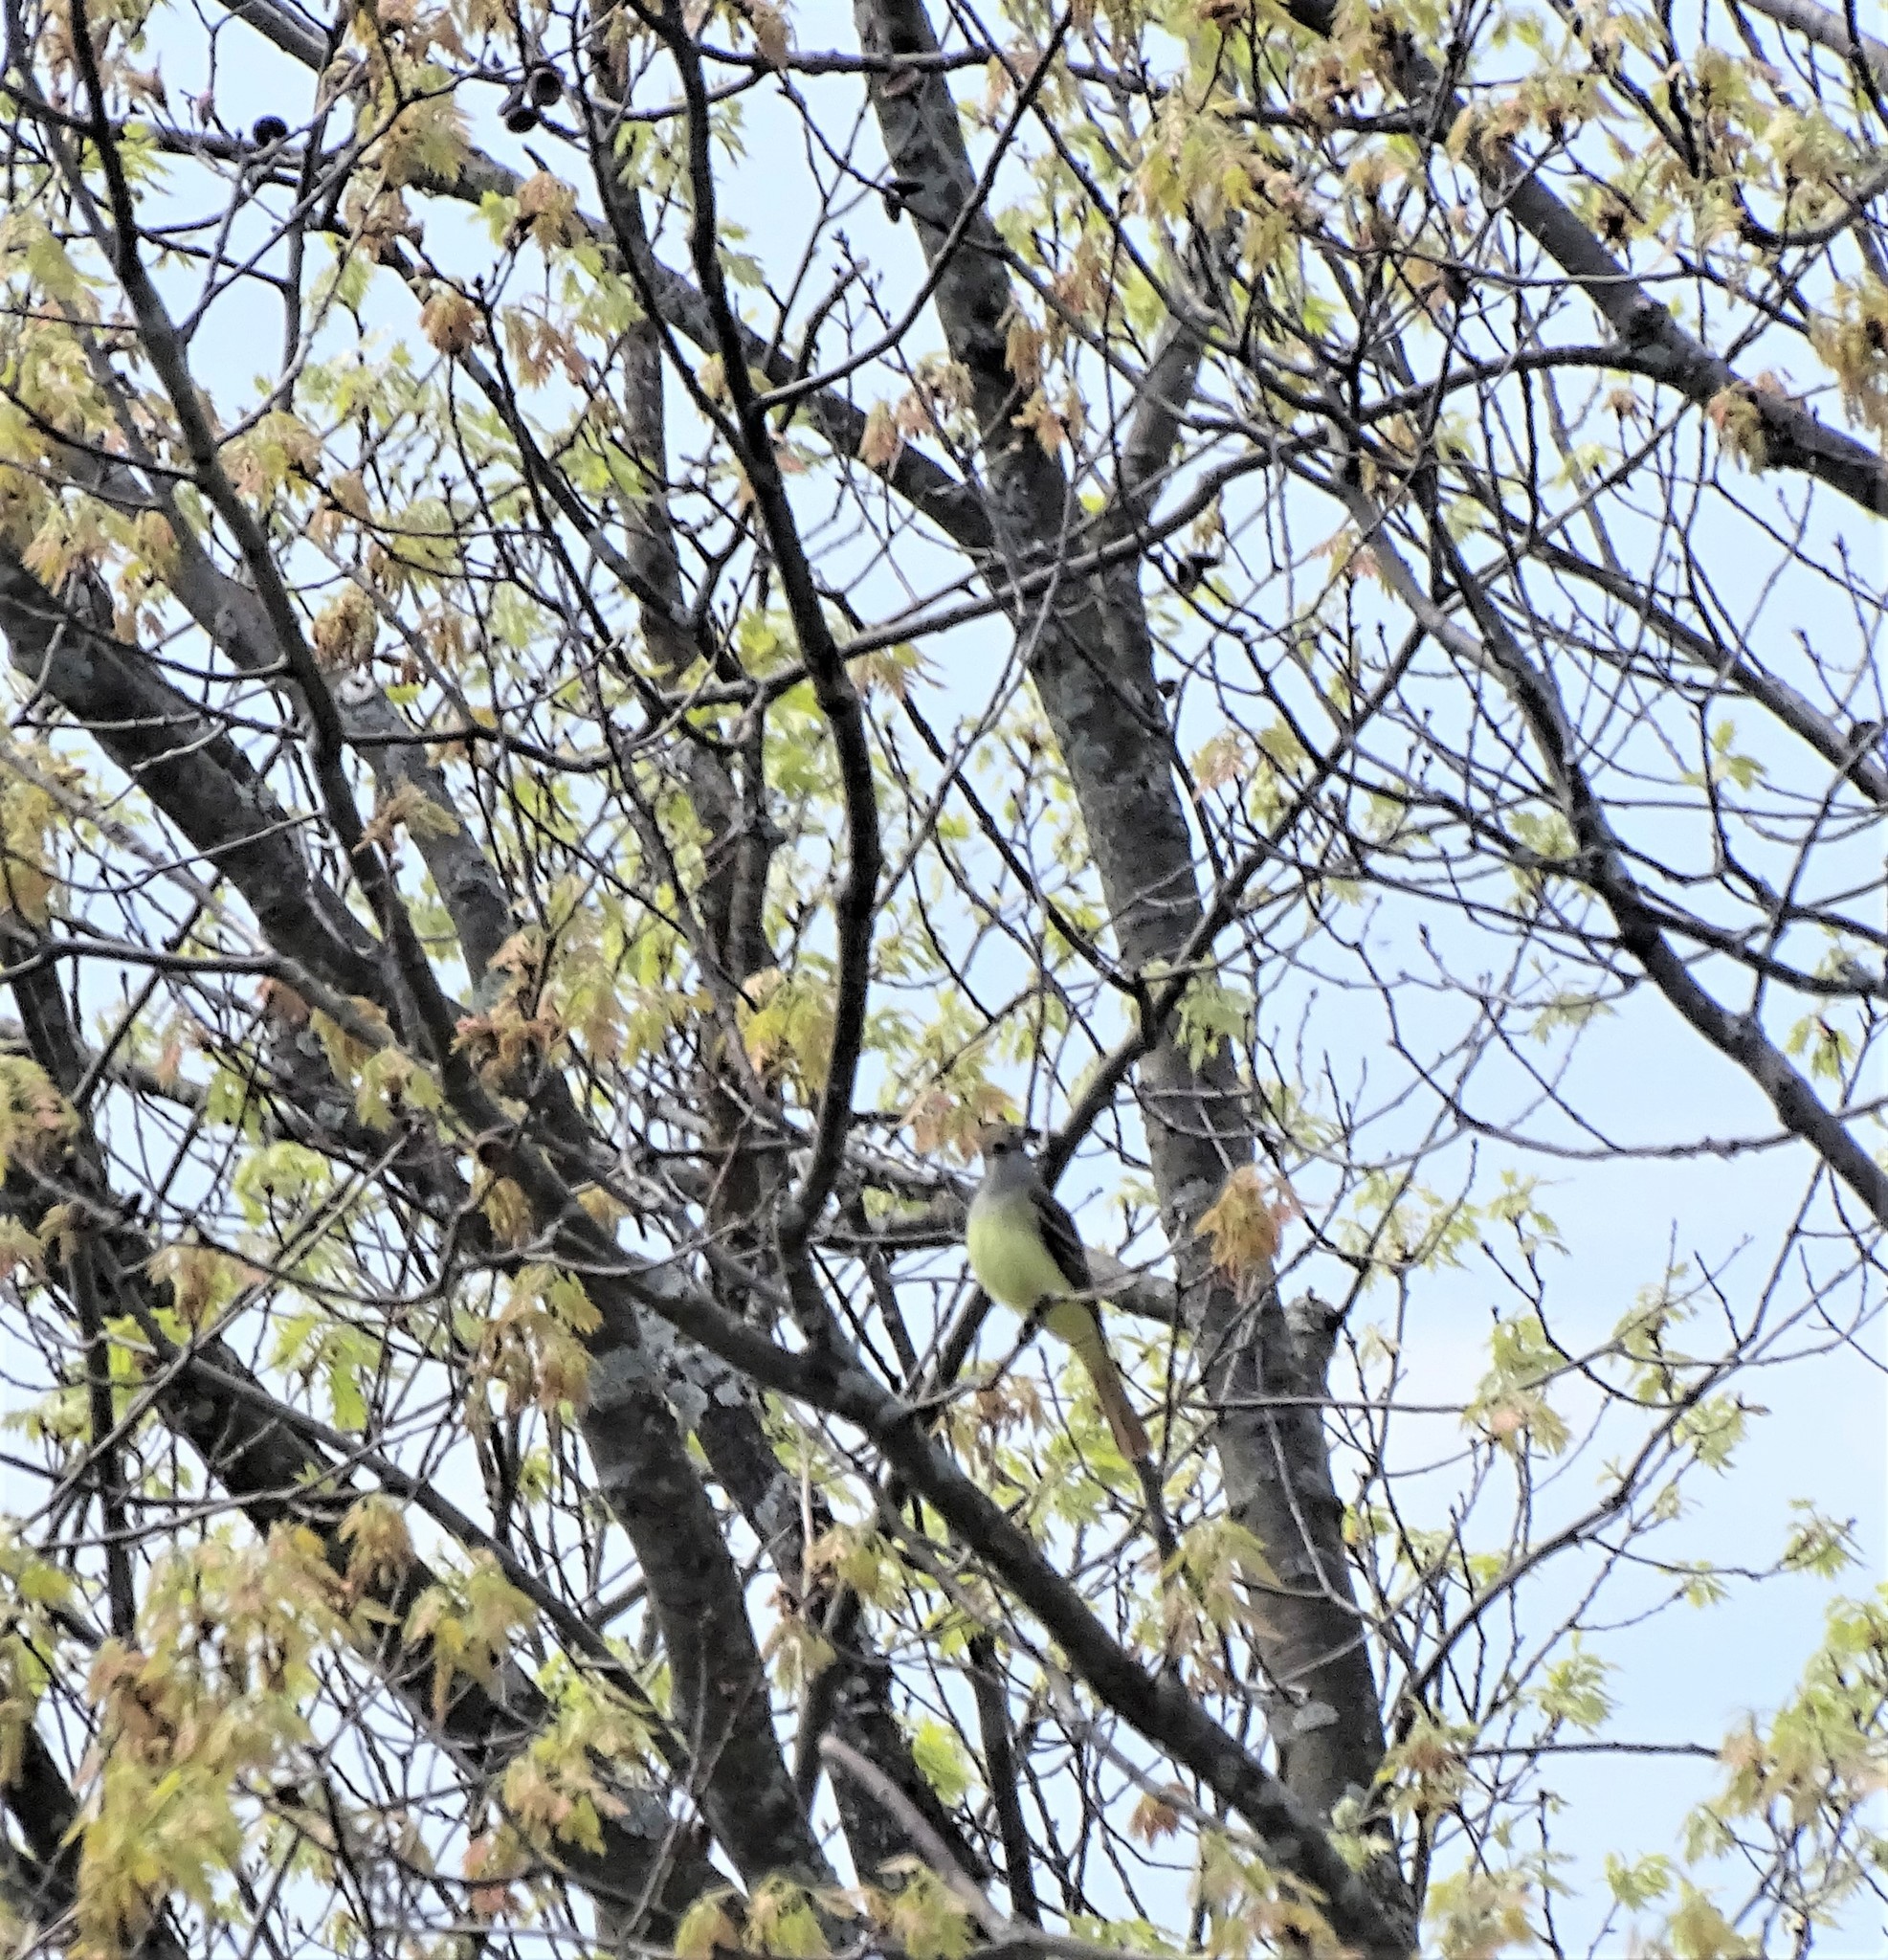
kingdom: Animalia
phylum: Chordata
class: Aves
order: Passeriformes
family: Tyrannidae
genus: Myiarchus
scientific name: Myiarchus crinitus
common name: Great crested flycatcher
